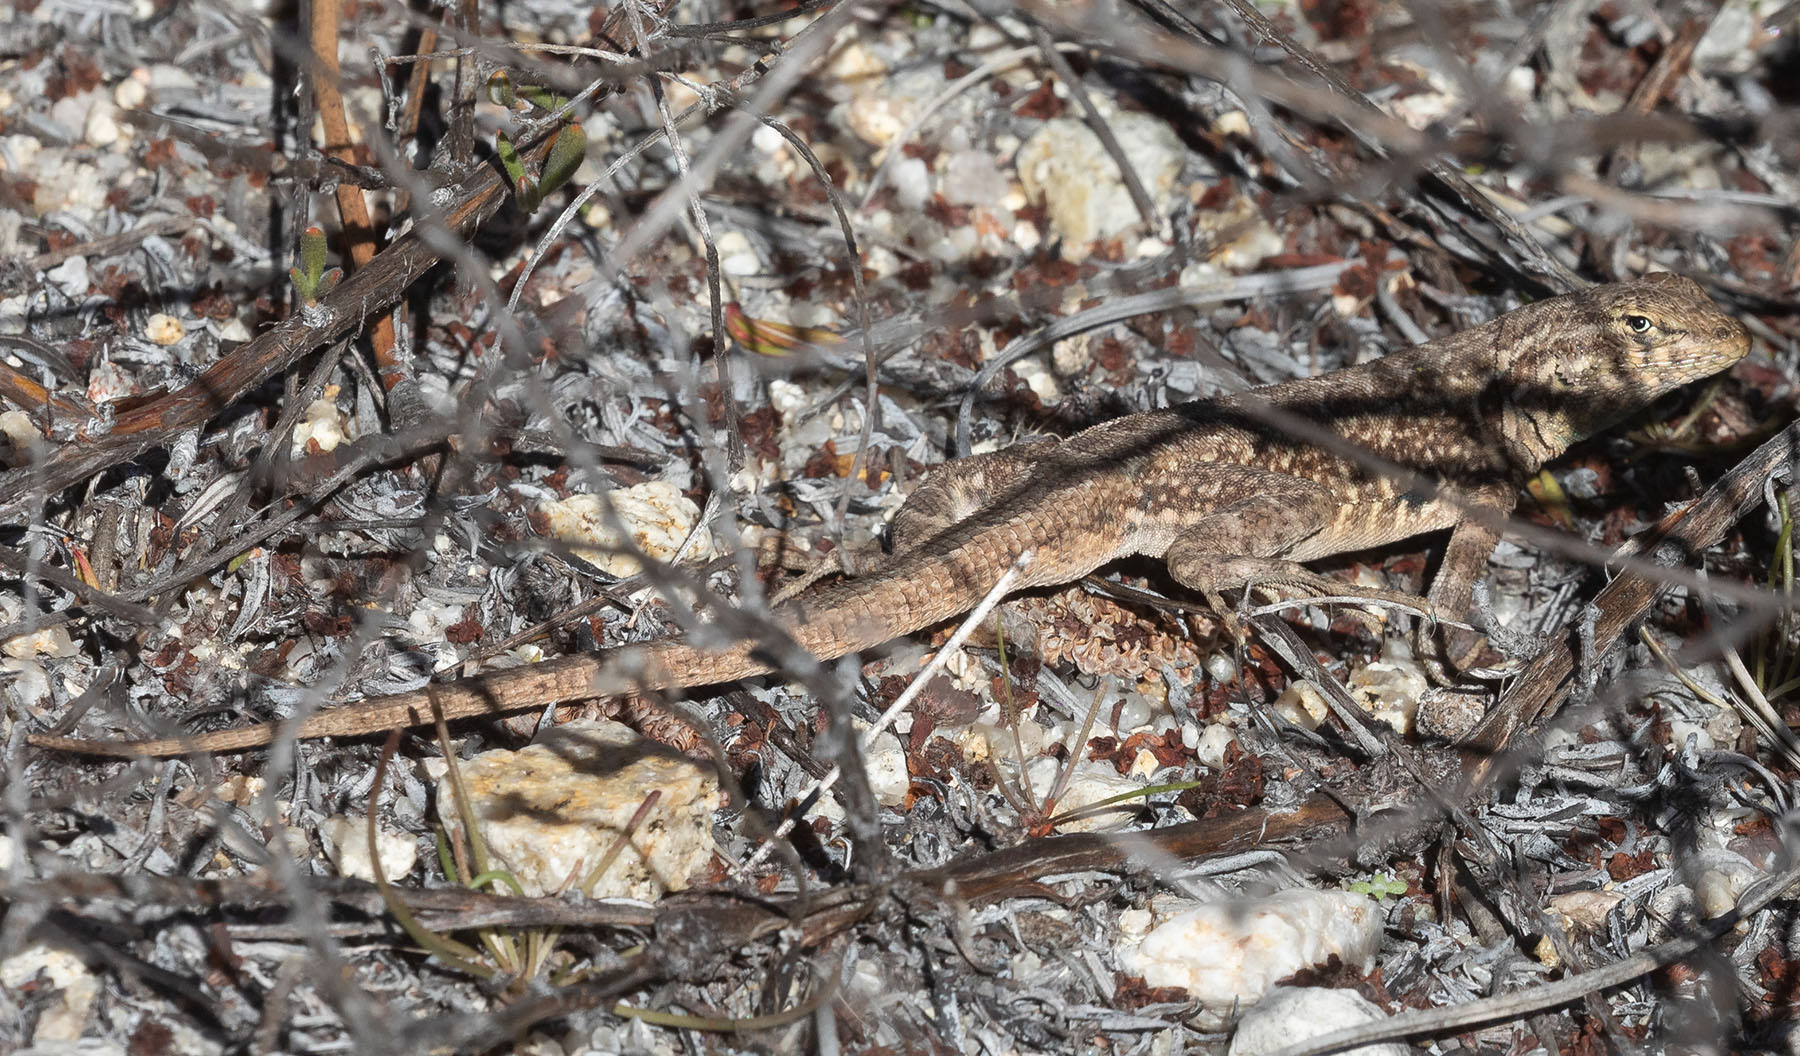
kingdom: Animalia
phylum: Chordata
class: Squamata
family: Phrynosomatidae
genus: Uta
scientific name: Uta stansburiana
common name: Side-blotched lizard
